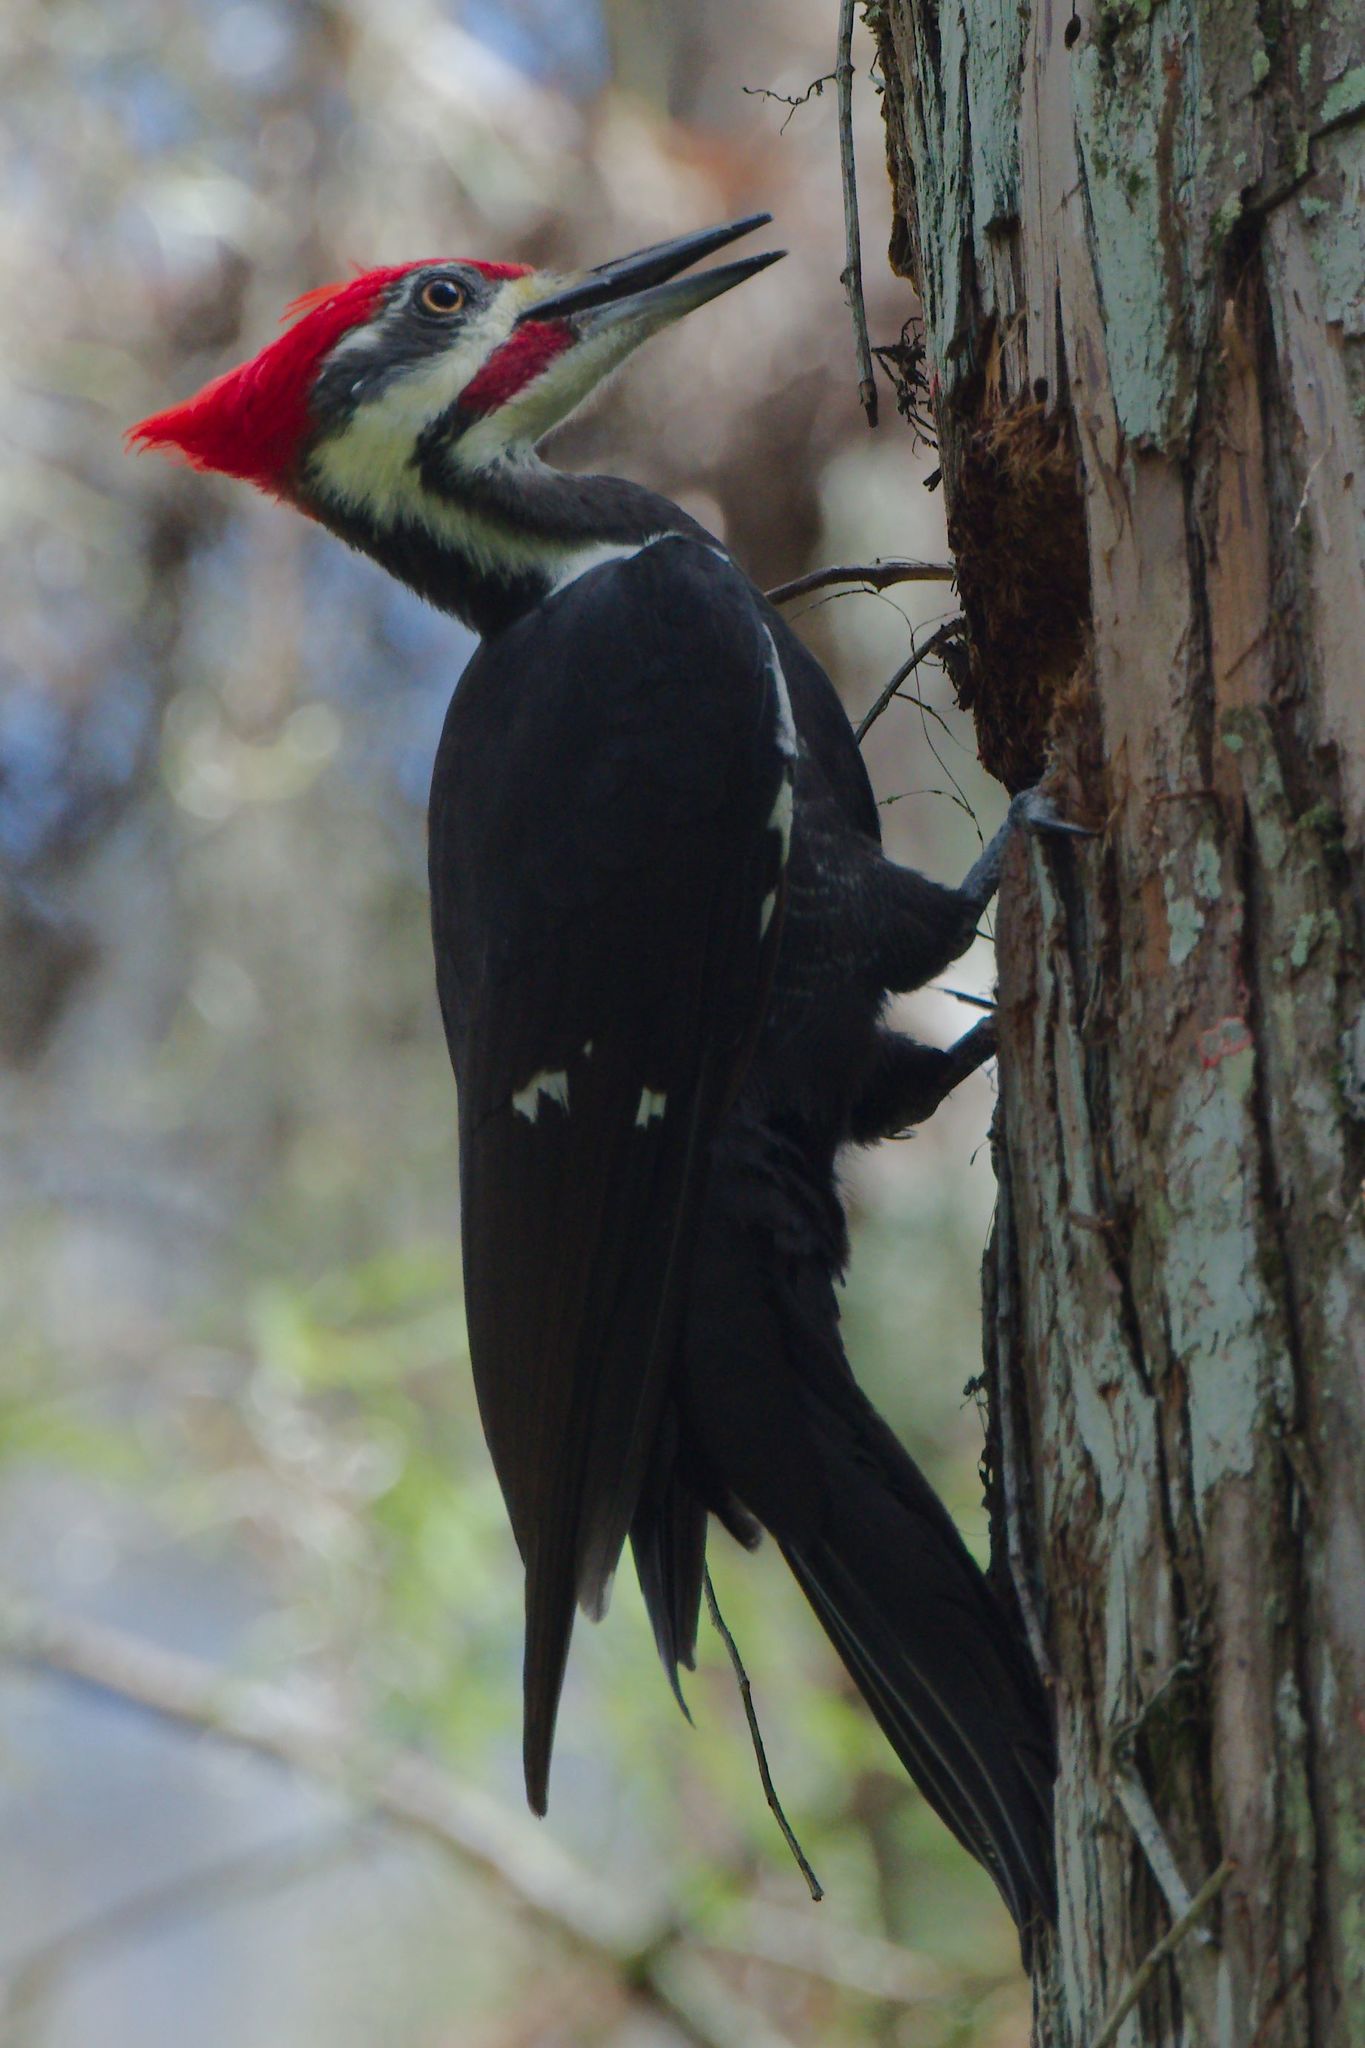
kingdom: Animalia
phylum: Chordata
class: Aves
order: Piciformes
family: Picidae
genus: Dryocopus
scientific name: Dryocopus pileatus
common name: Pileated woodpecker
